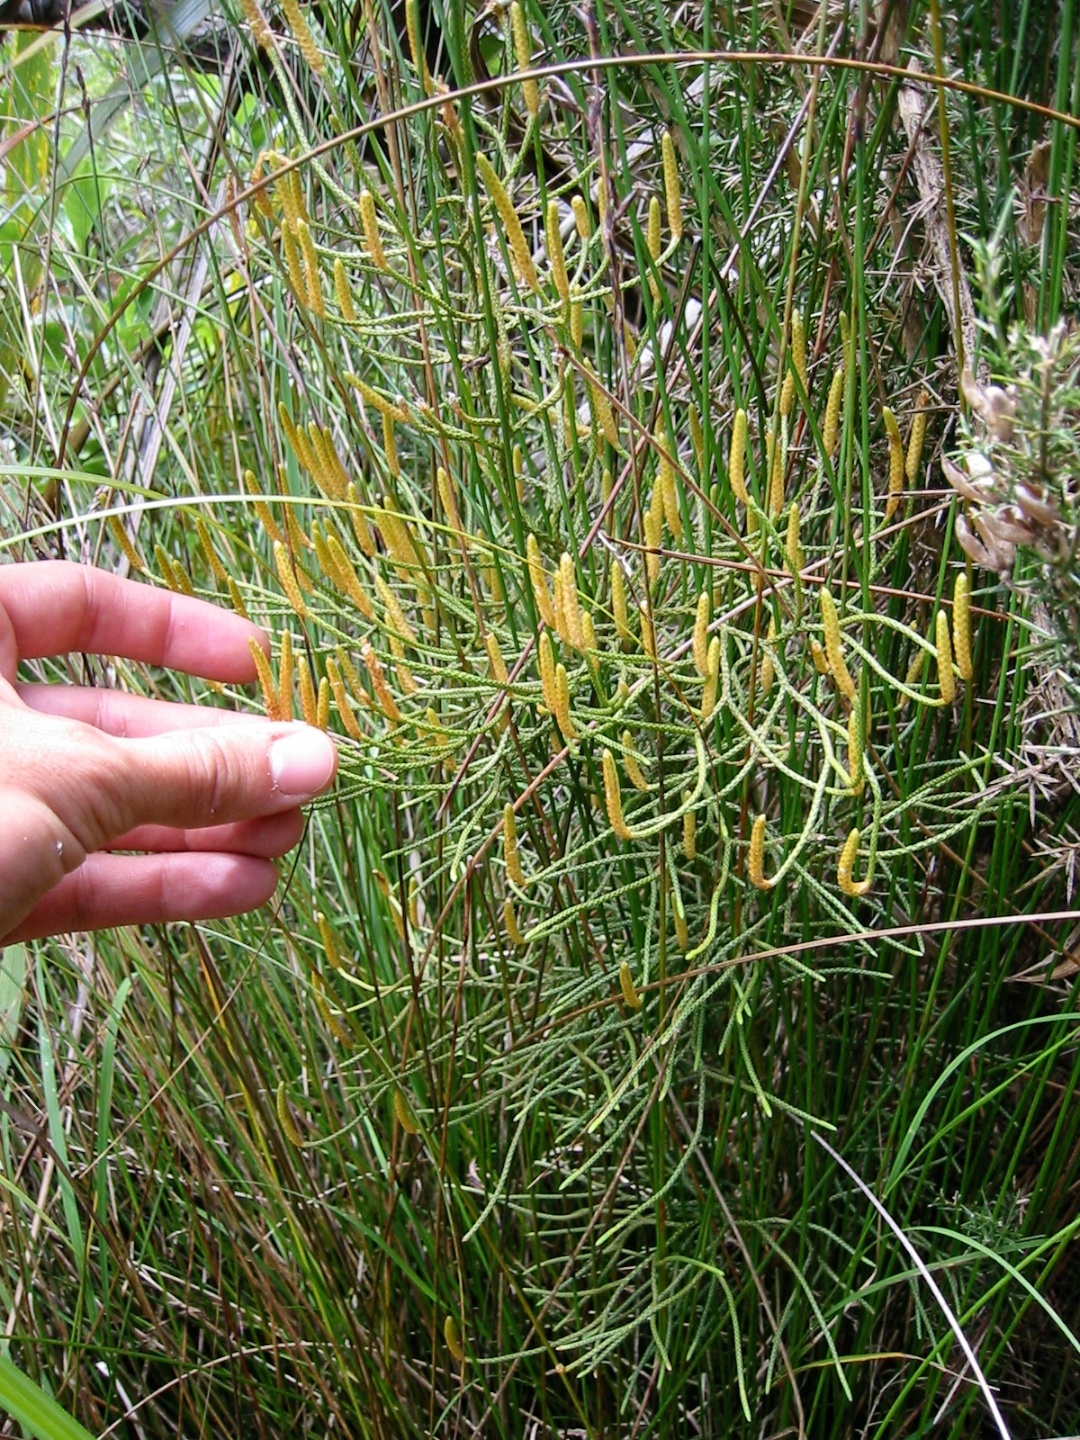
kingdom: Plantae
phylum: Tracheophyta
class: Lycopodiopsida
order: Lycopodiales
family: Lycopodiaceae
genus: Pseudolycopodium
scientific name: Pseudolycopodium densum
